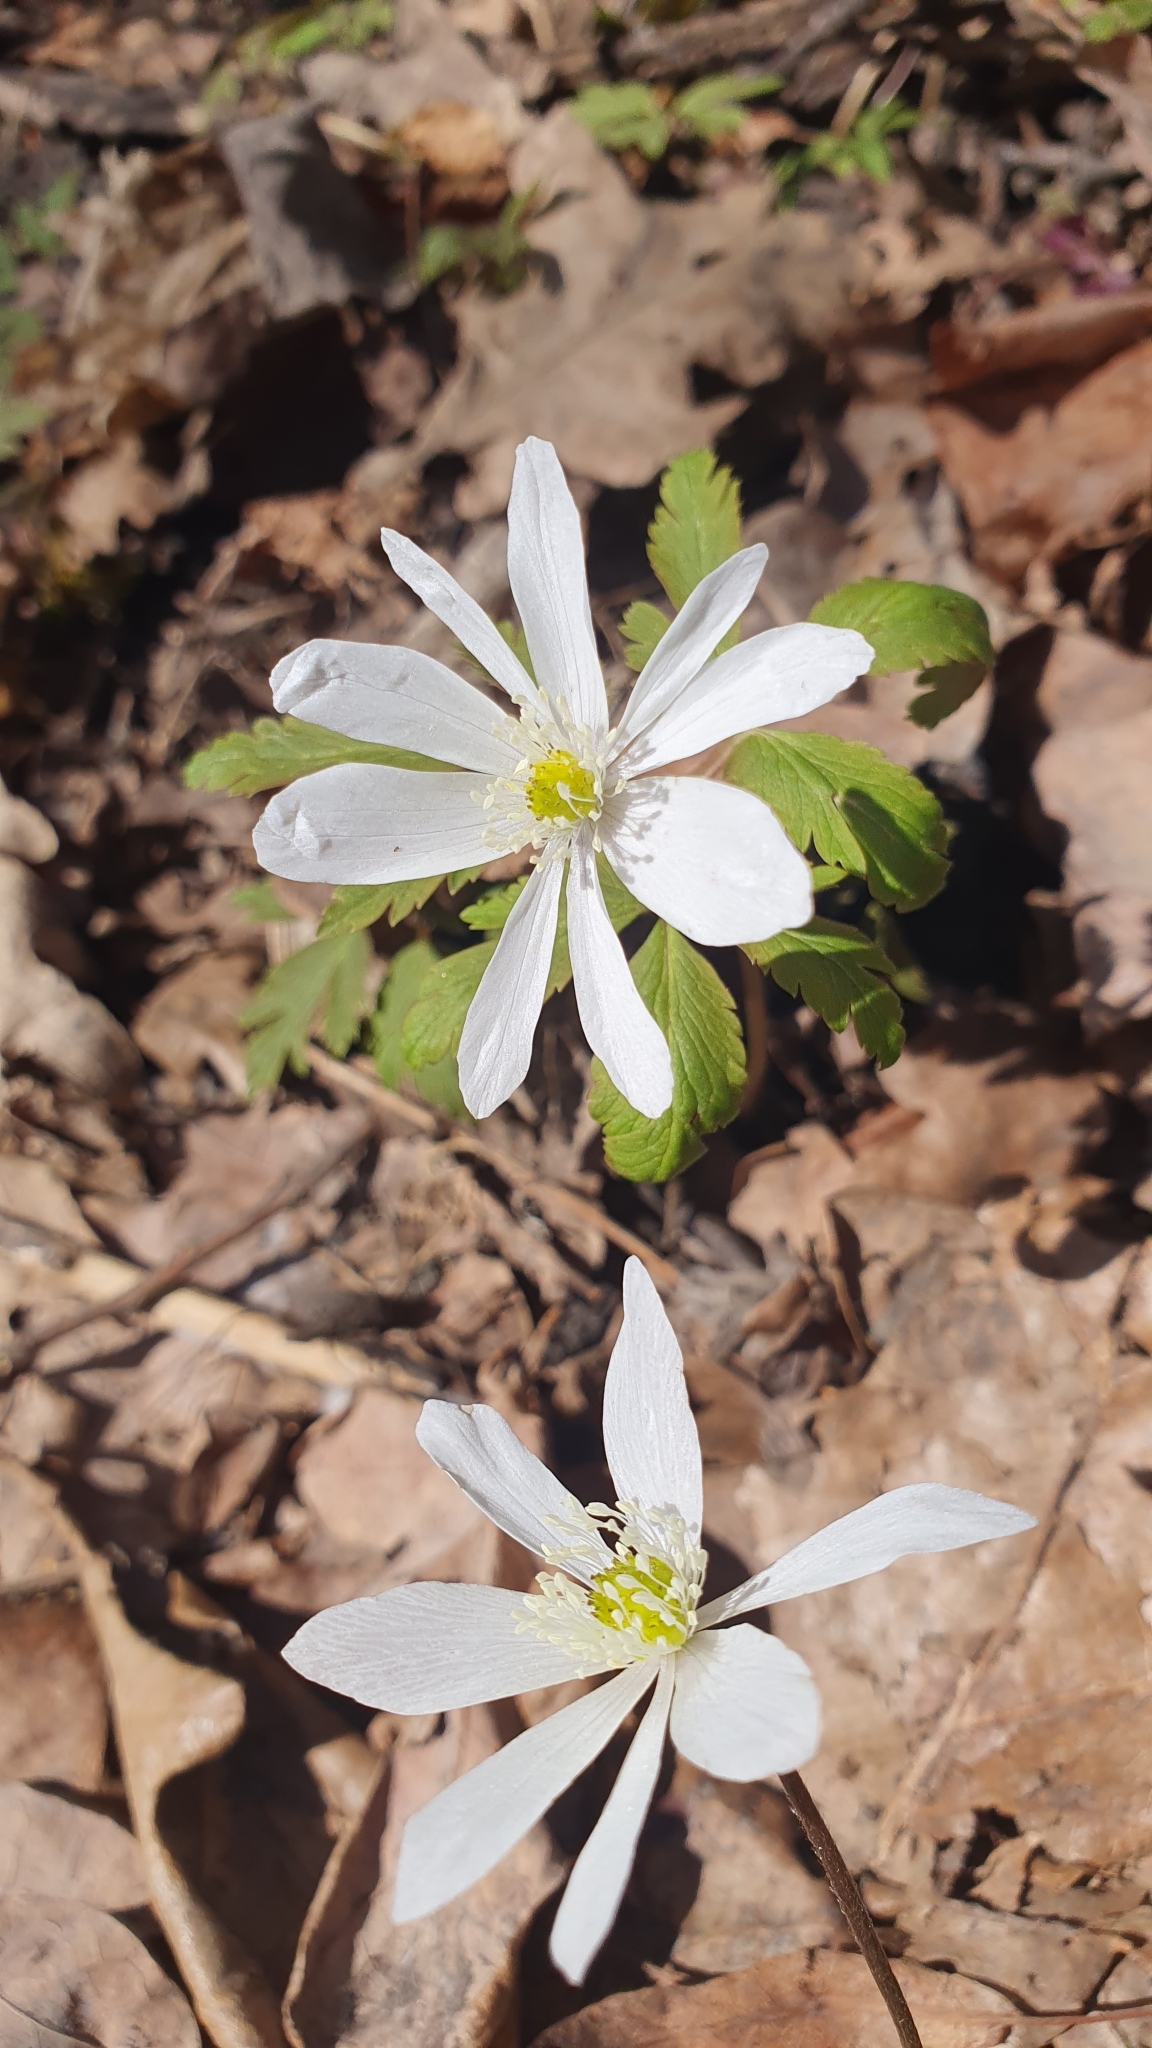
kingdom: Plantae
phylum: Tracheophyta
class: Magnoliopsida
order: Ranunculales
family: Ranunculaceae
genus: Anemone
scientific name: Anemone altaica
